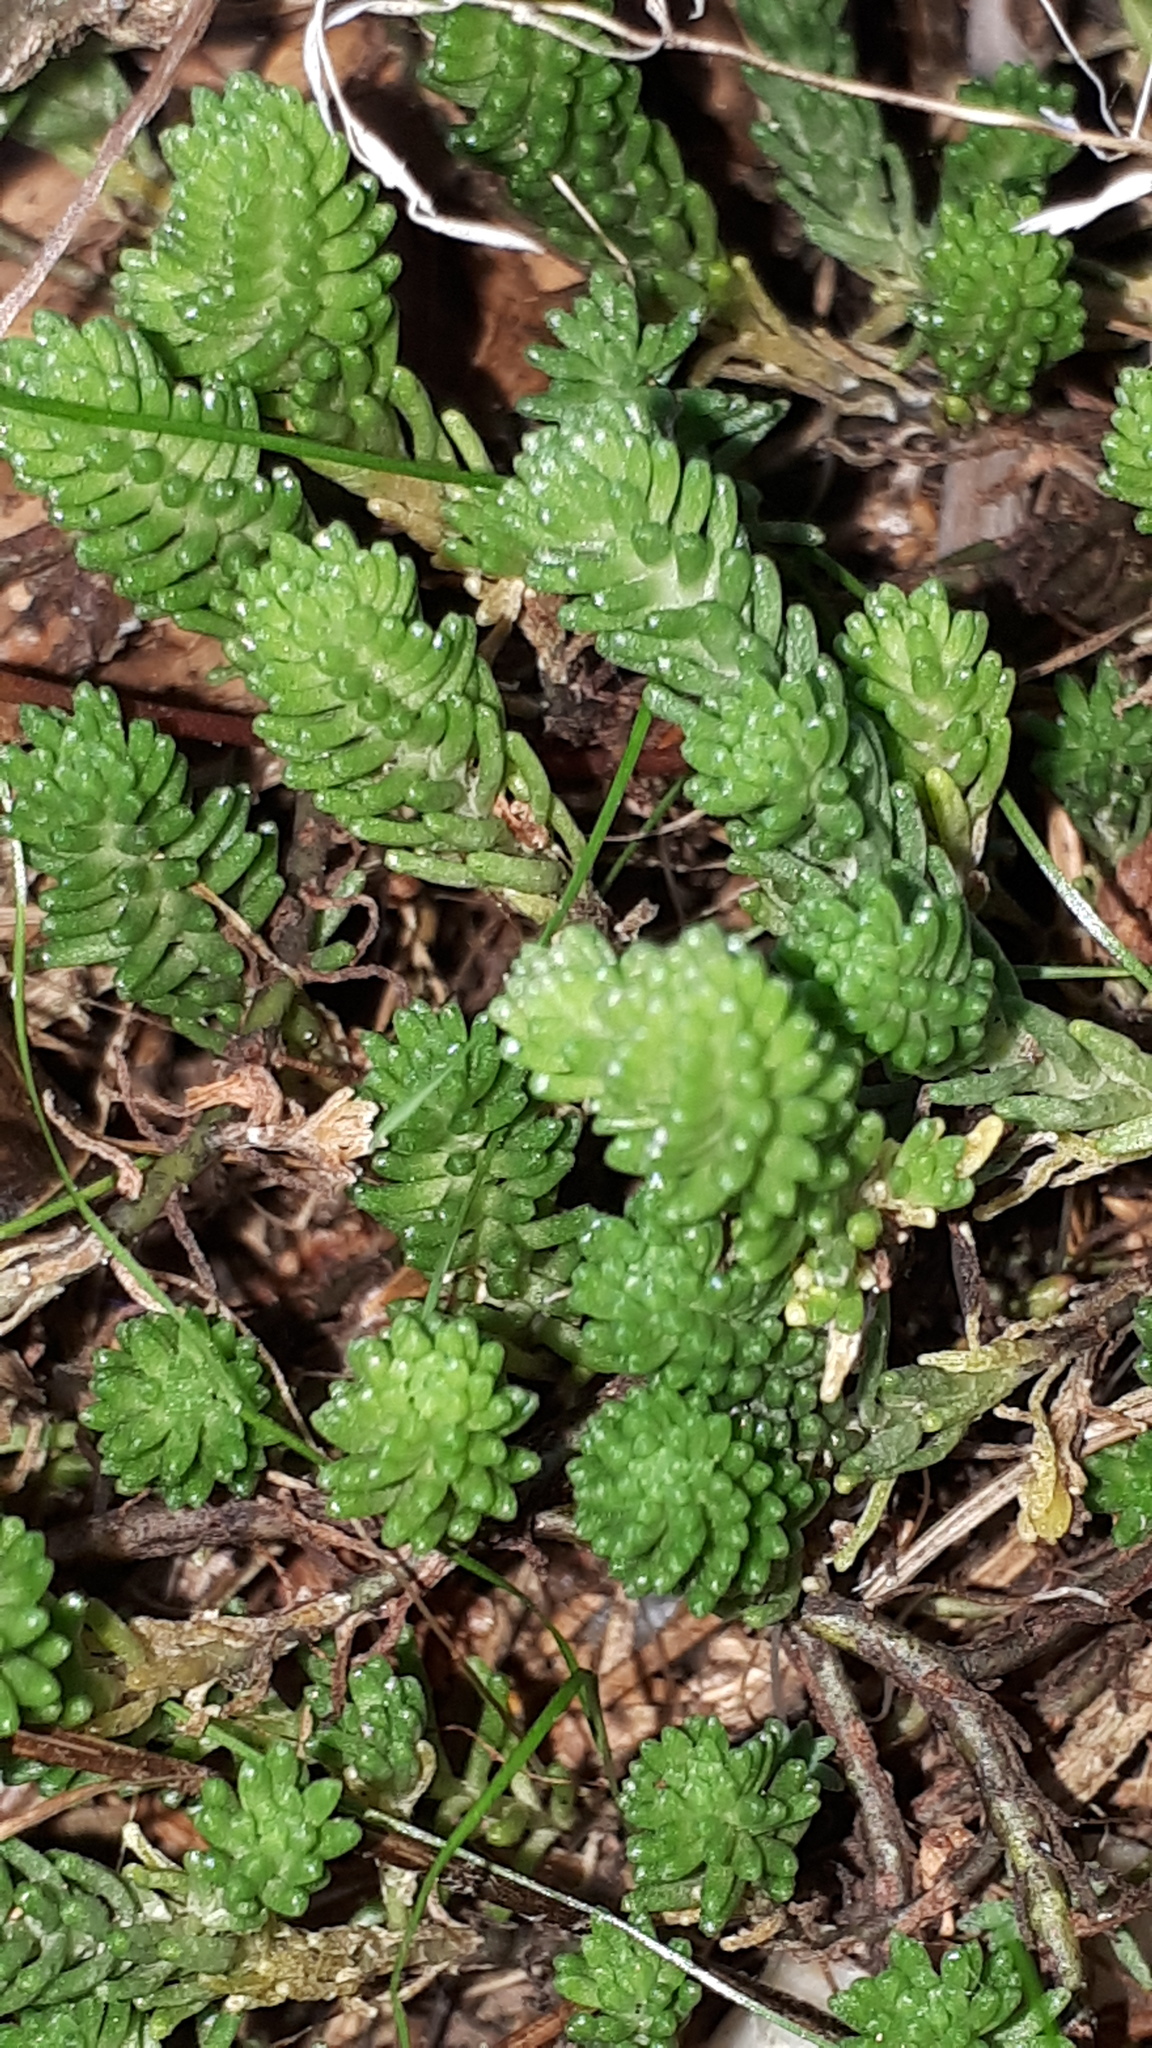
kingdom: Plantae
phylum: Tracheophyta
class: Magnoliopsida
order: Saxifragales
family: Crassulaceae
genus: Sedum
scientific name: Sedum sexangulare
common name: Tasteless stonecrop
